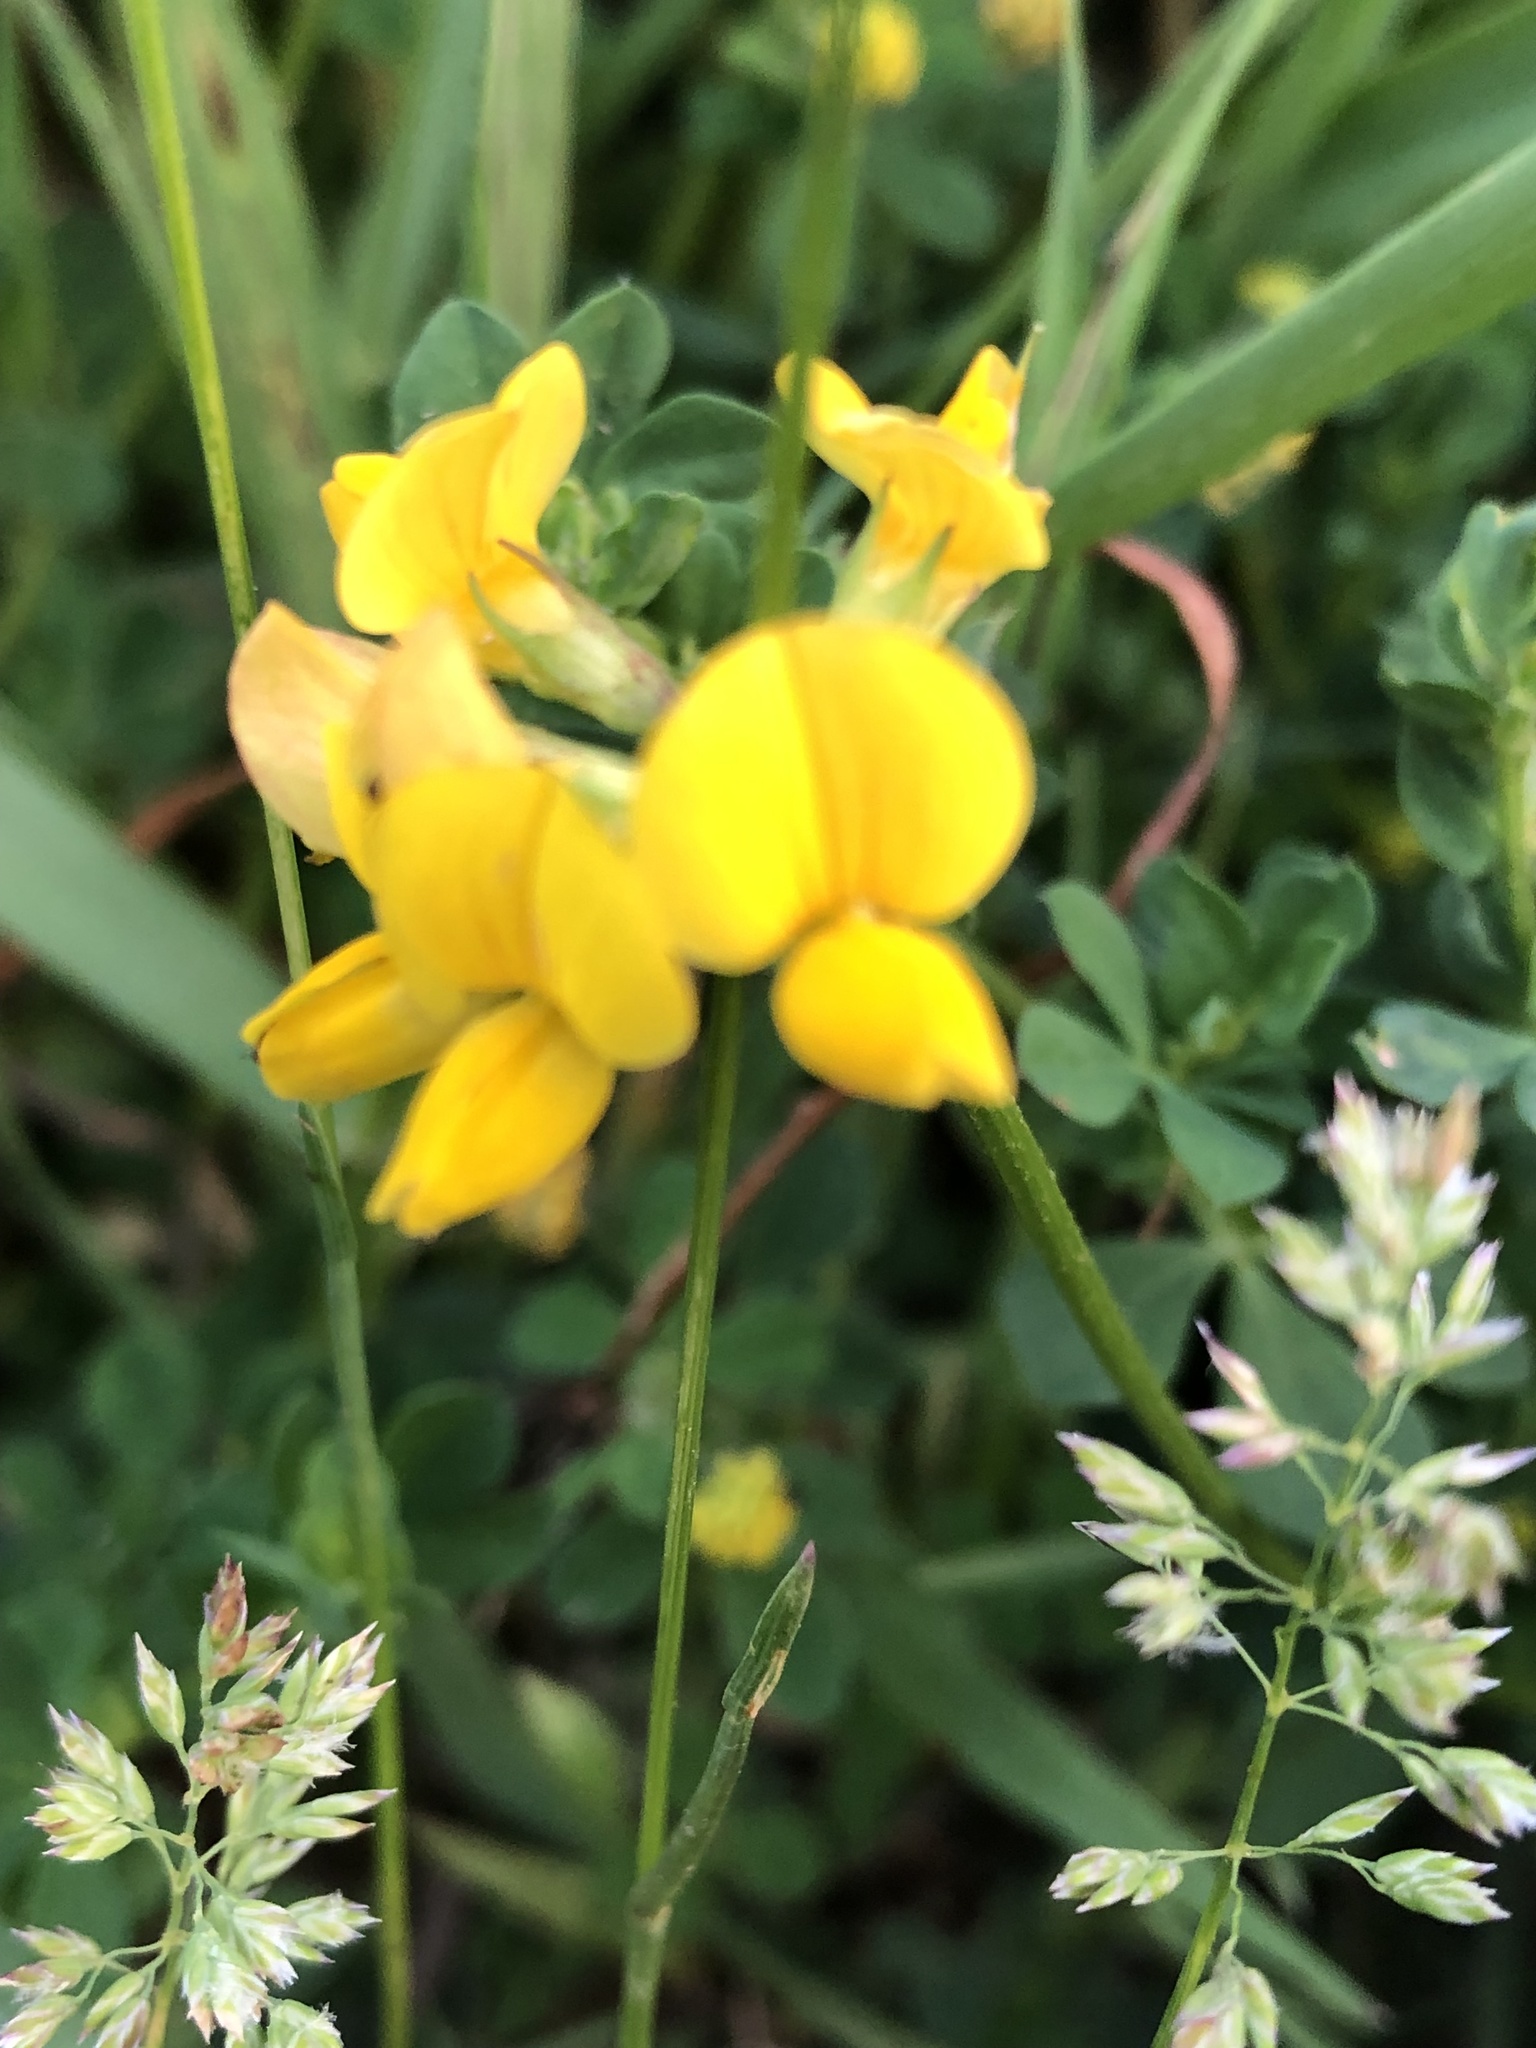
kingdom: Plantae
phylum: Tracheophyta
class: Magnoliopsida
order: Fabales
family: Fabaceae
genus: Lotus
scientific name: Lotus corniculatus
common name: Common bird's-foot-trefoil
